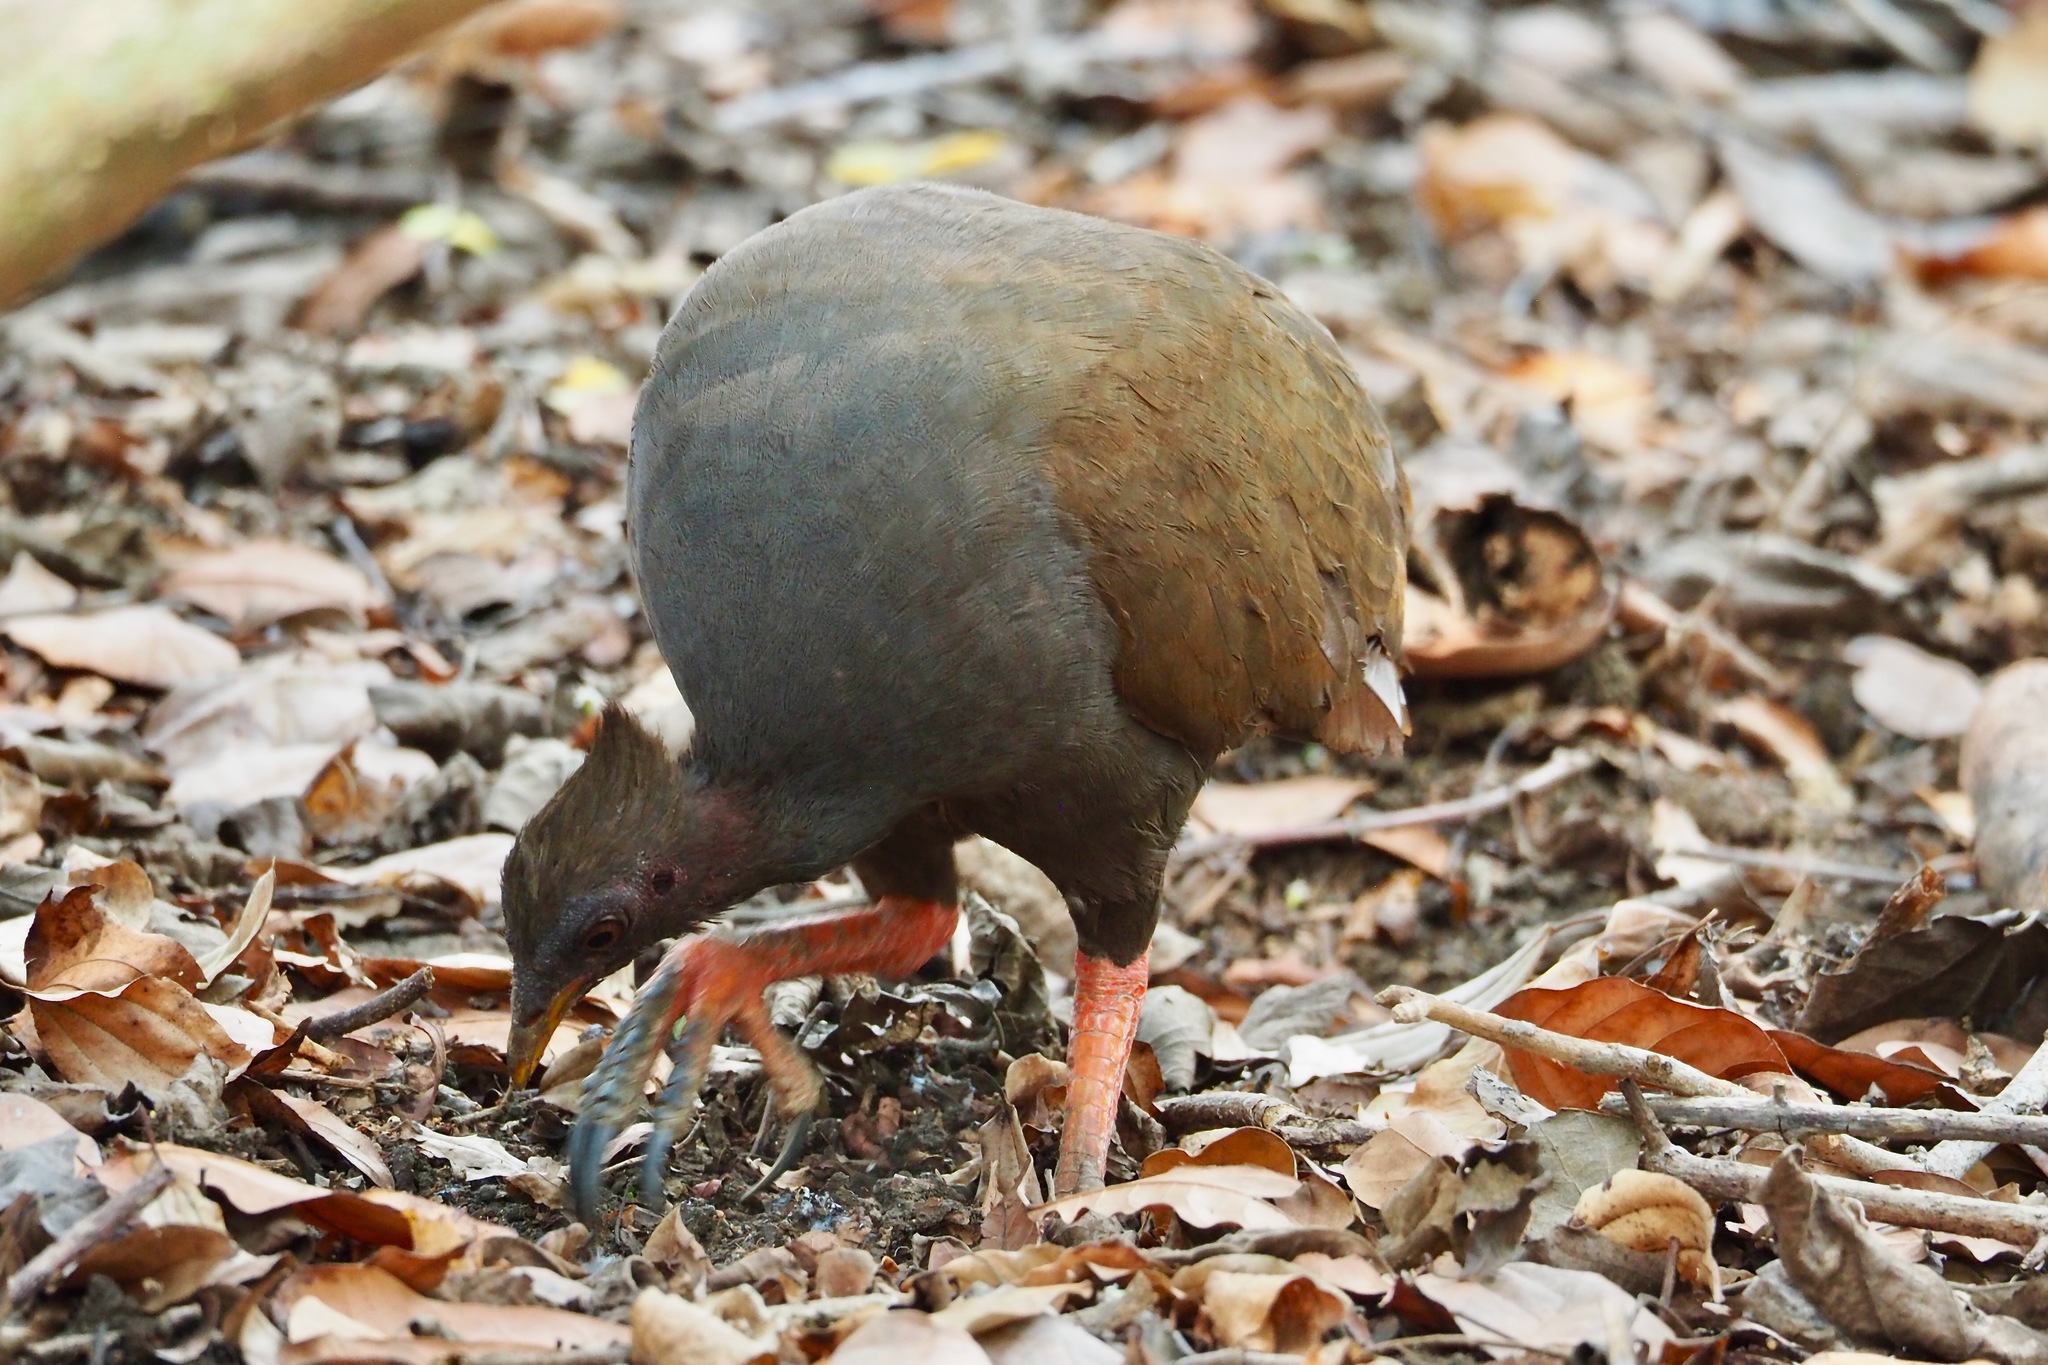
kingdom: Animalia
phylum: Chordata
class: Aves
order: Galliformes
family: Megapodiidae
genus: Megapodius
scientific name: Megapodius reinwardt
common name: Orange-footed scrubfowl
